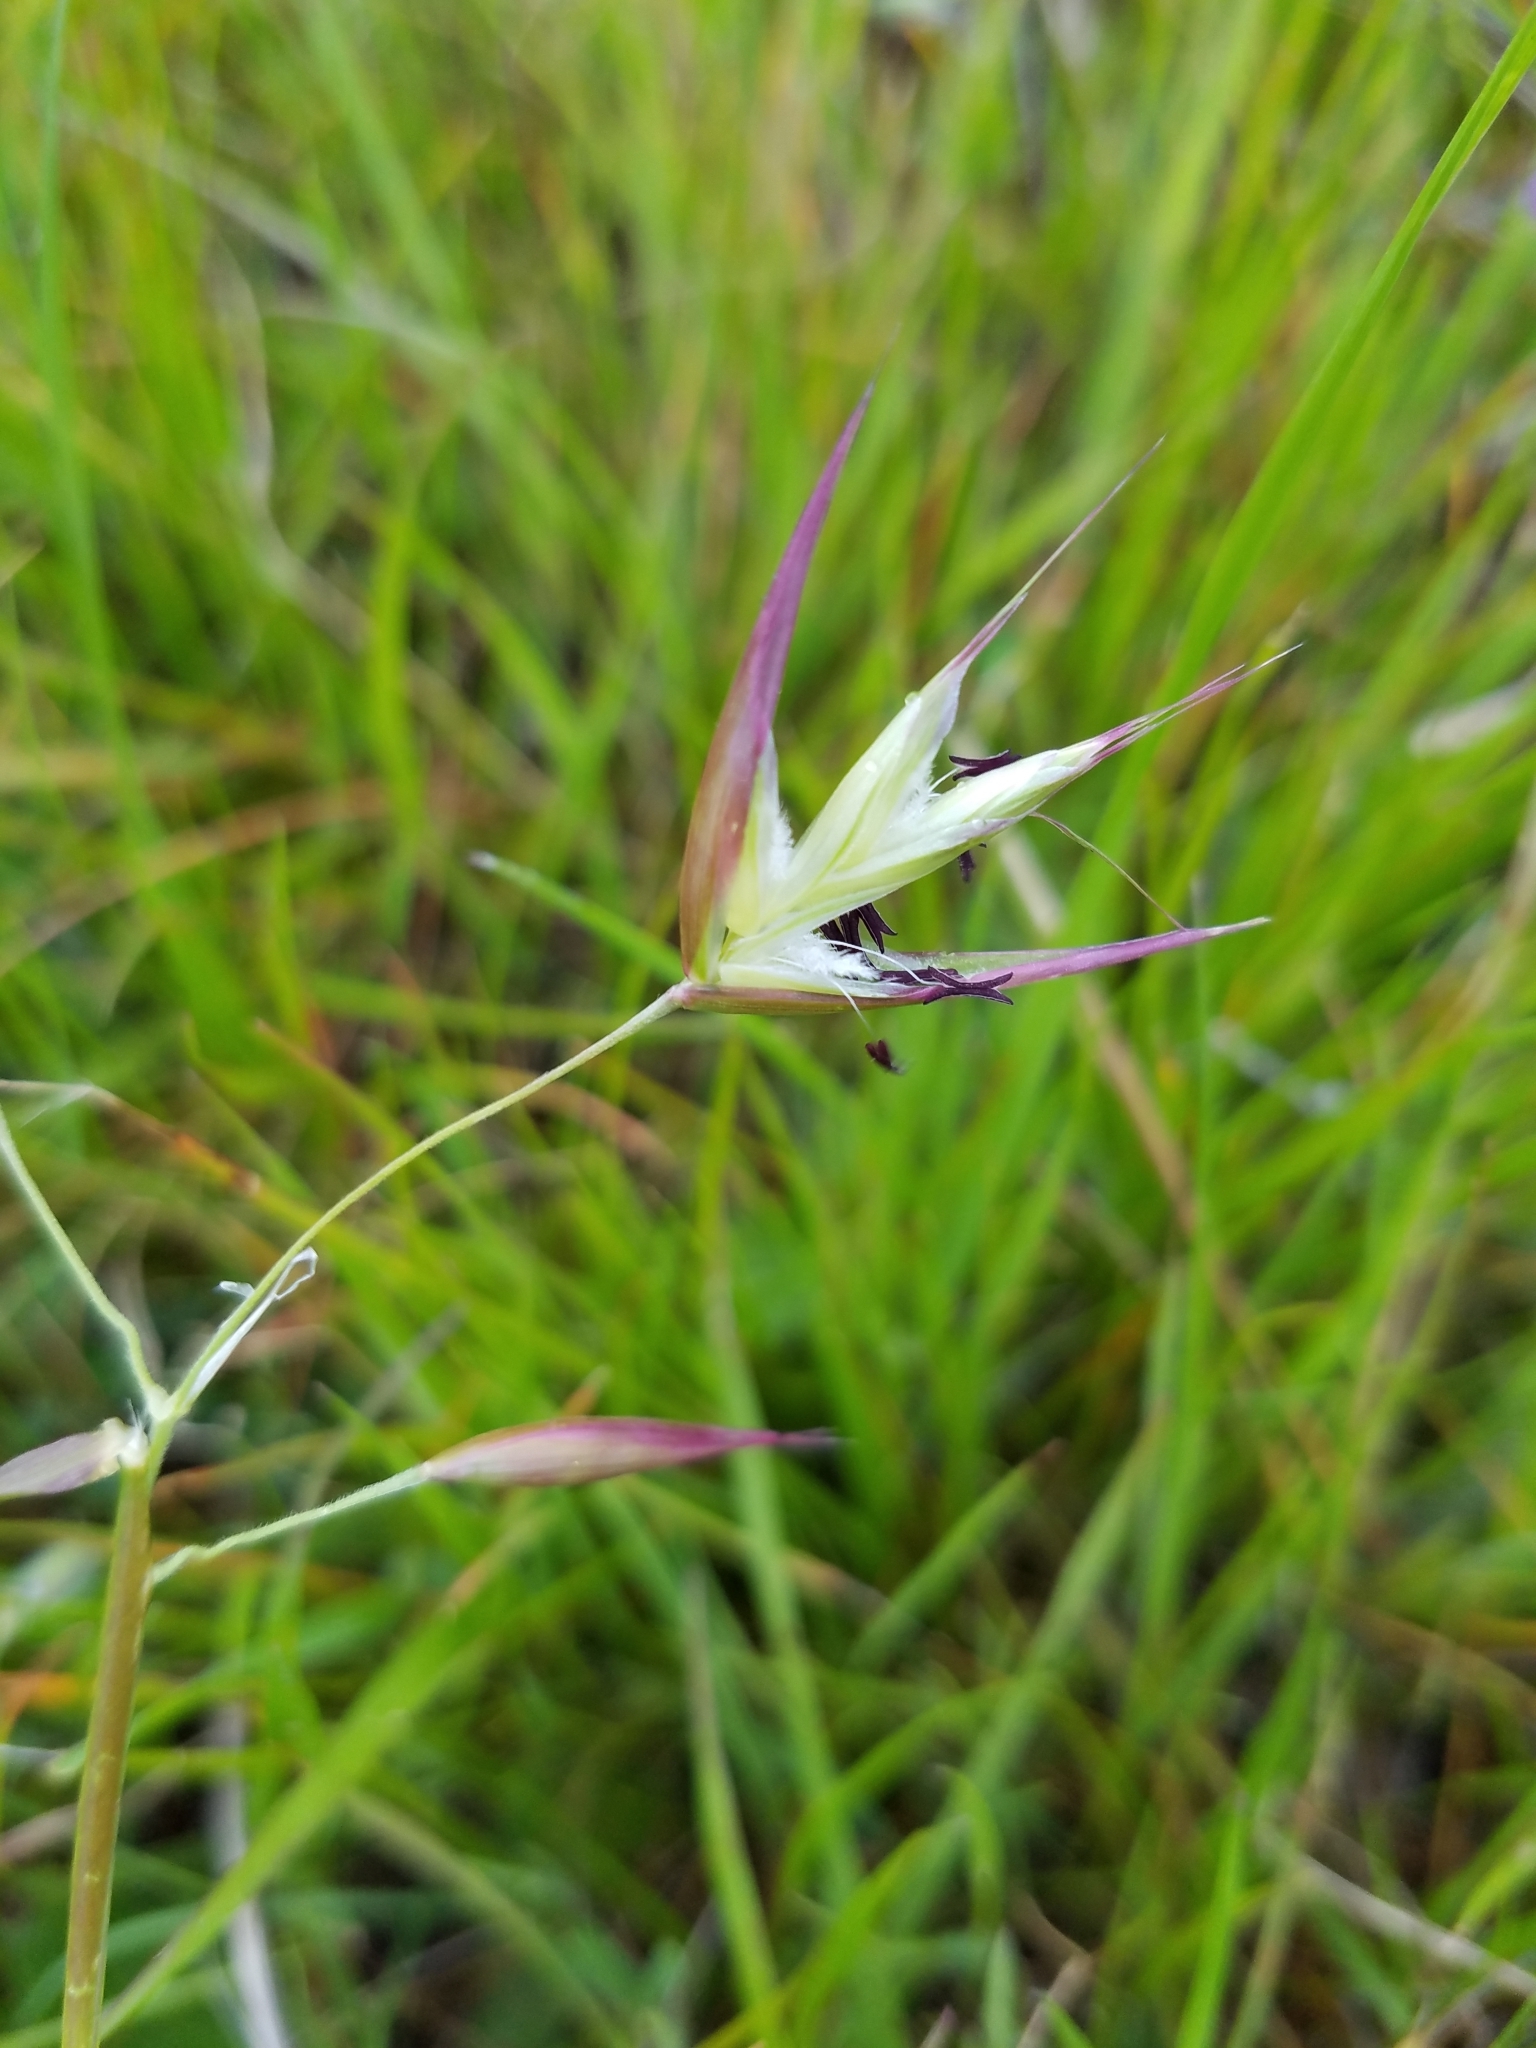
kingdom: Plantae
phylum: Tracheophyta
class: Liliopsida
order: Poales
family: Poaceae
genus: Danthonia
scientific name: Danthonia californica
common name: California oat grass
